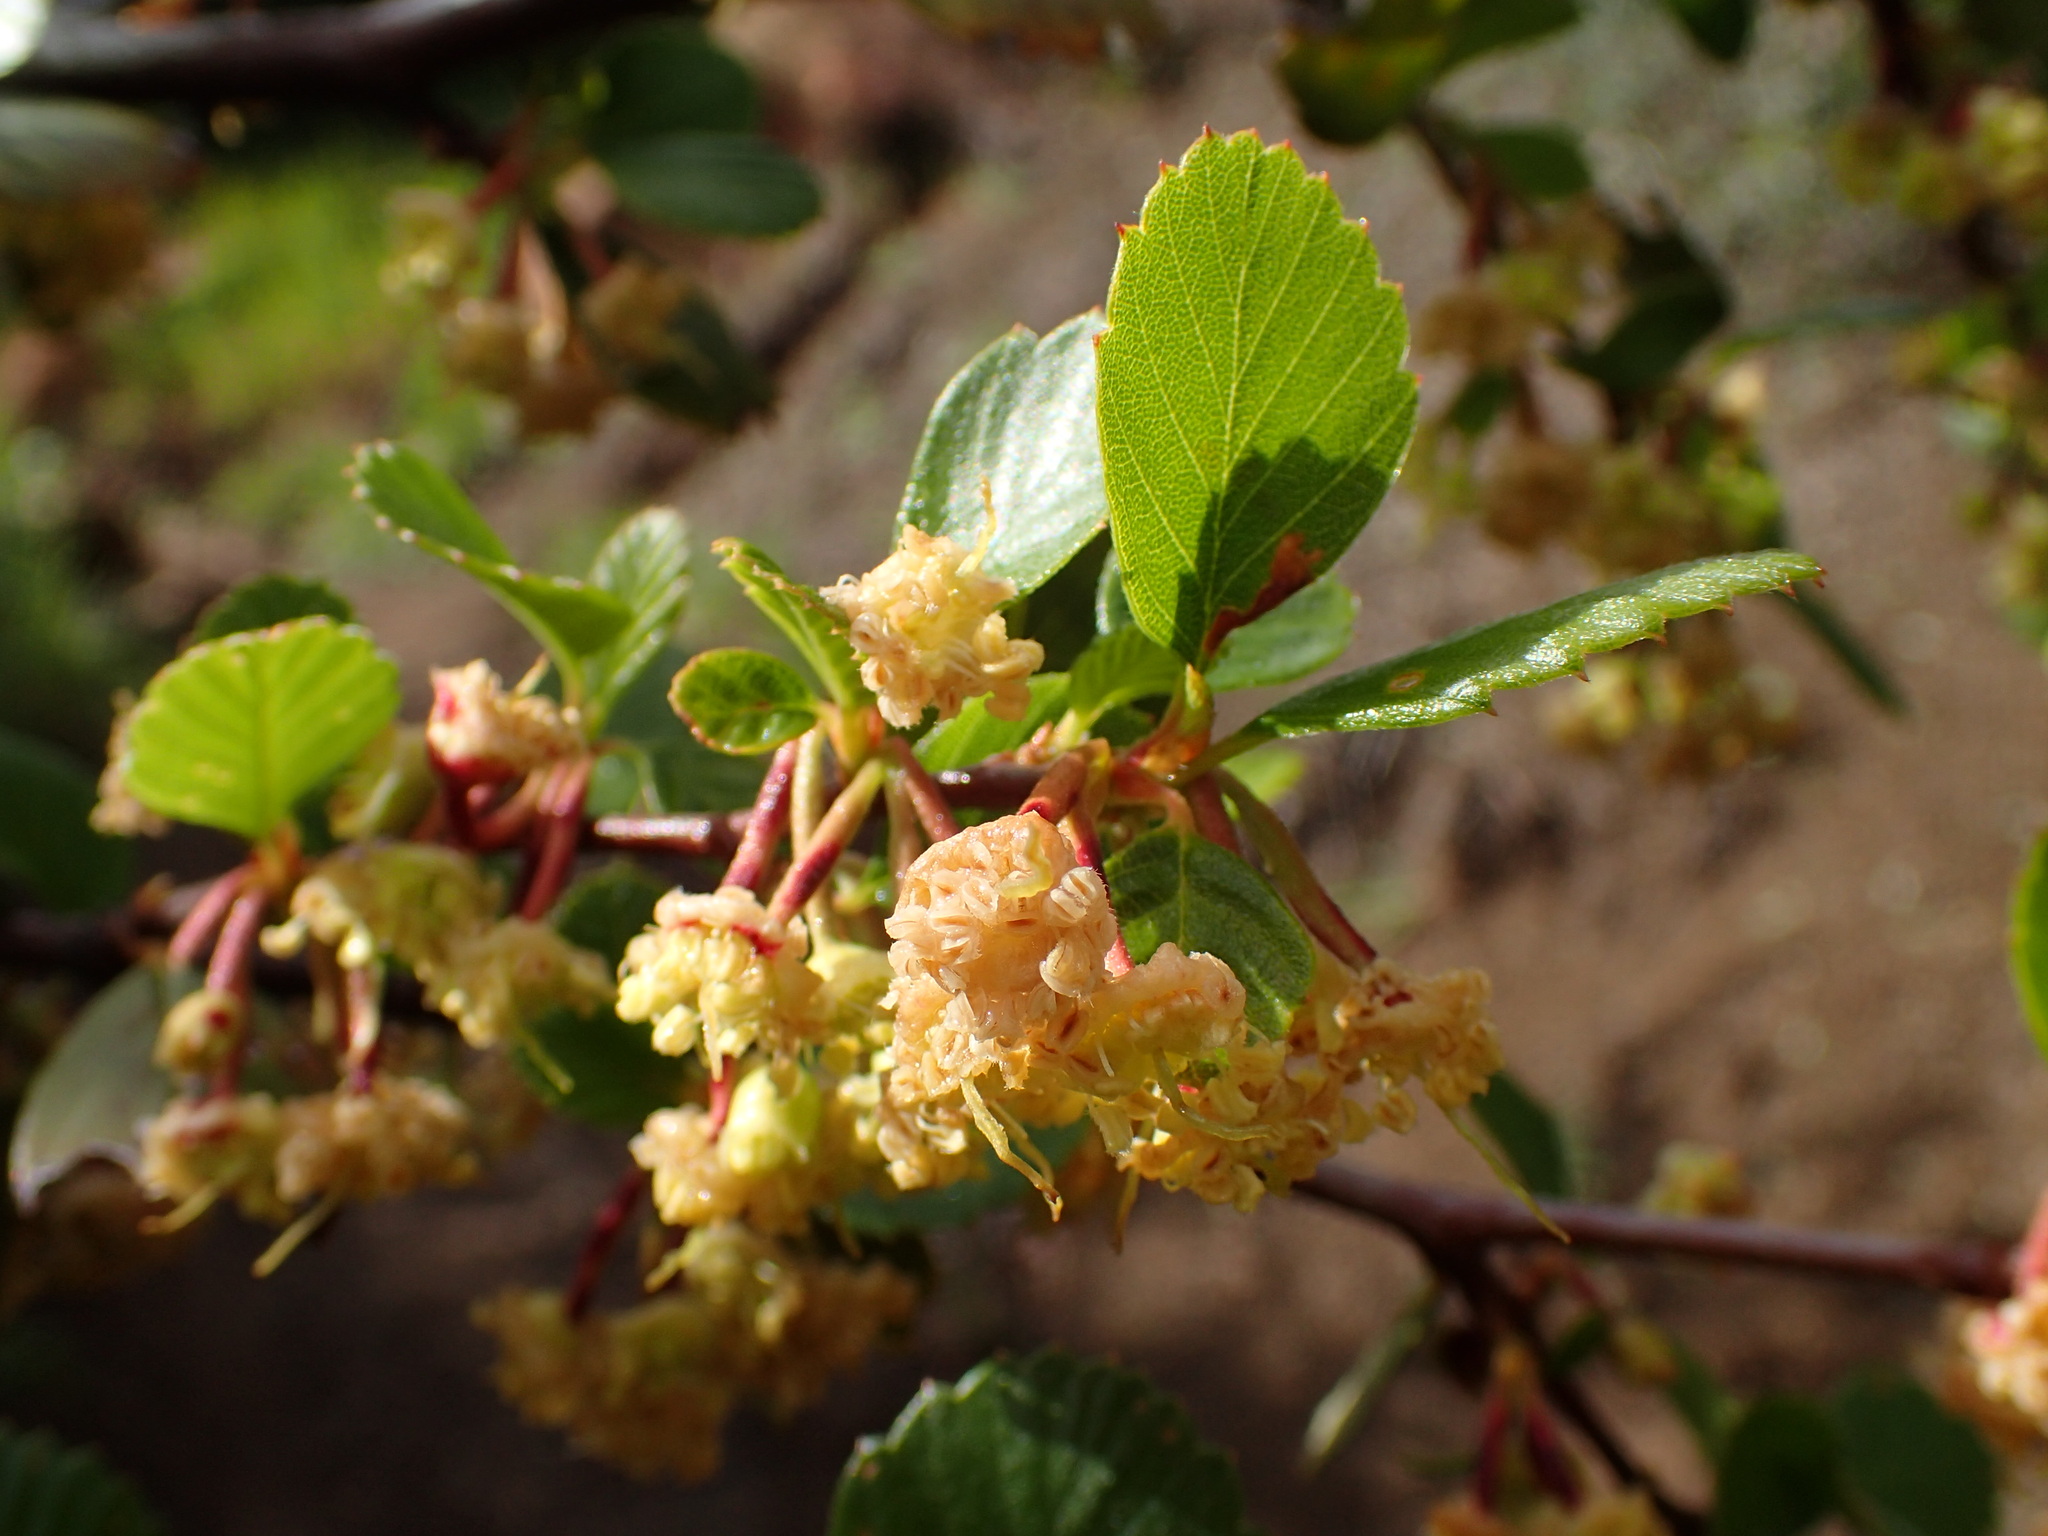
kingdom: Plantae
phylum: Tracheophyta
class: Magnoliopsida
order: Rosales
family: Rosaceae
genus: Cercocarpus
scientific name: Cercocarpus betuloides
